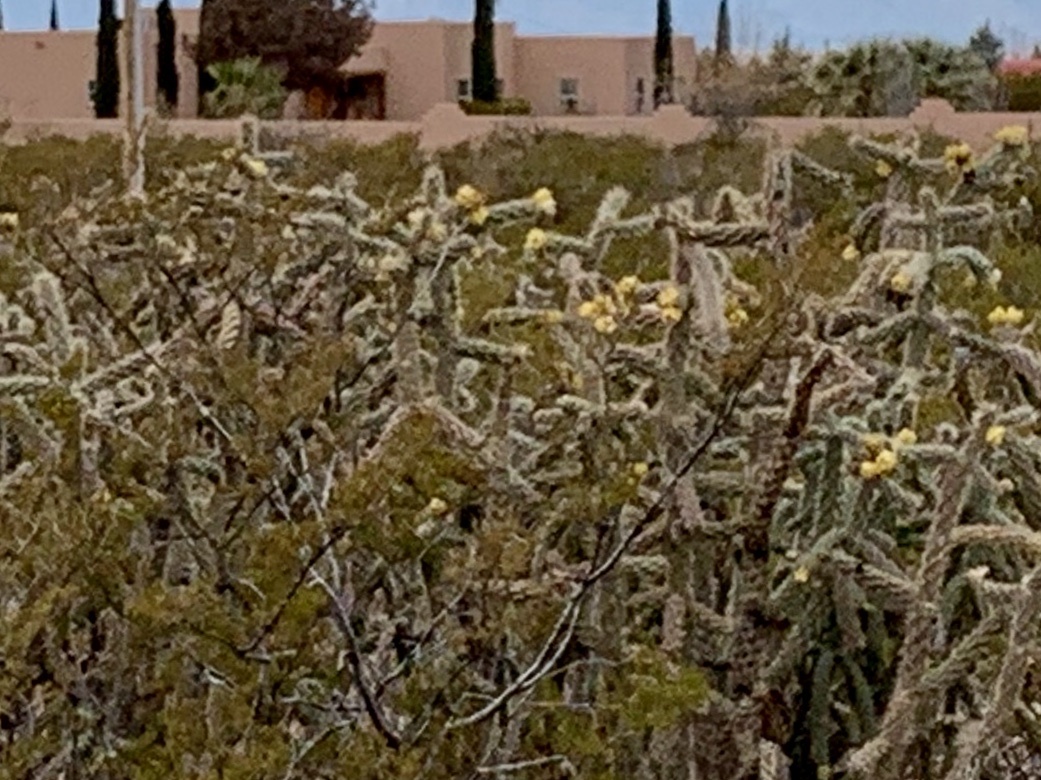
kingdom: Plantae
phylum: Tracheophyta
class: Magnoliopsida
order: Caryophyllales
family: Cactaceae
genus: Cylindropuntia
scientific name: Cylindropuntia imbricata
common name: Candelabrum cactus
